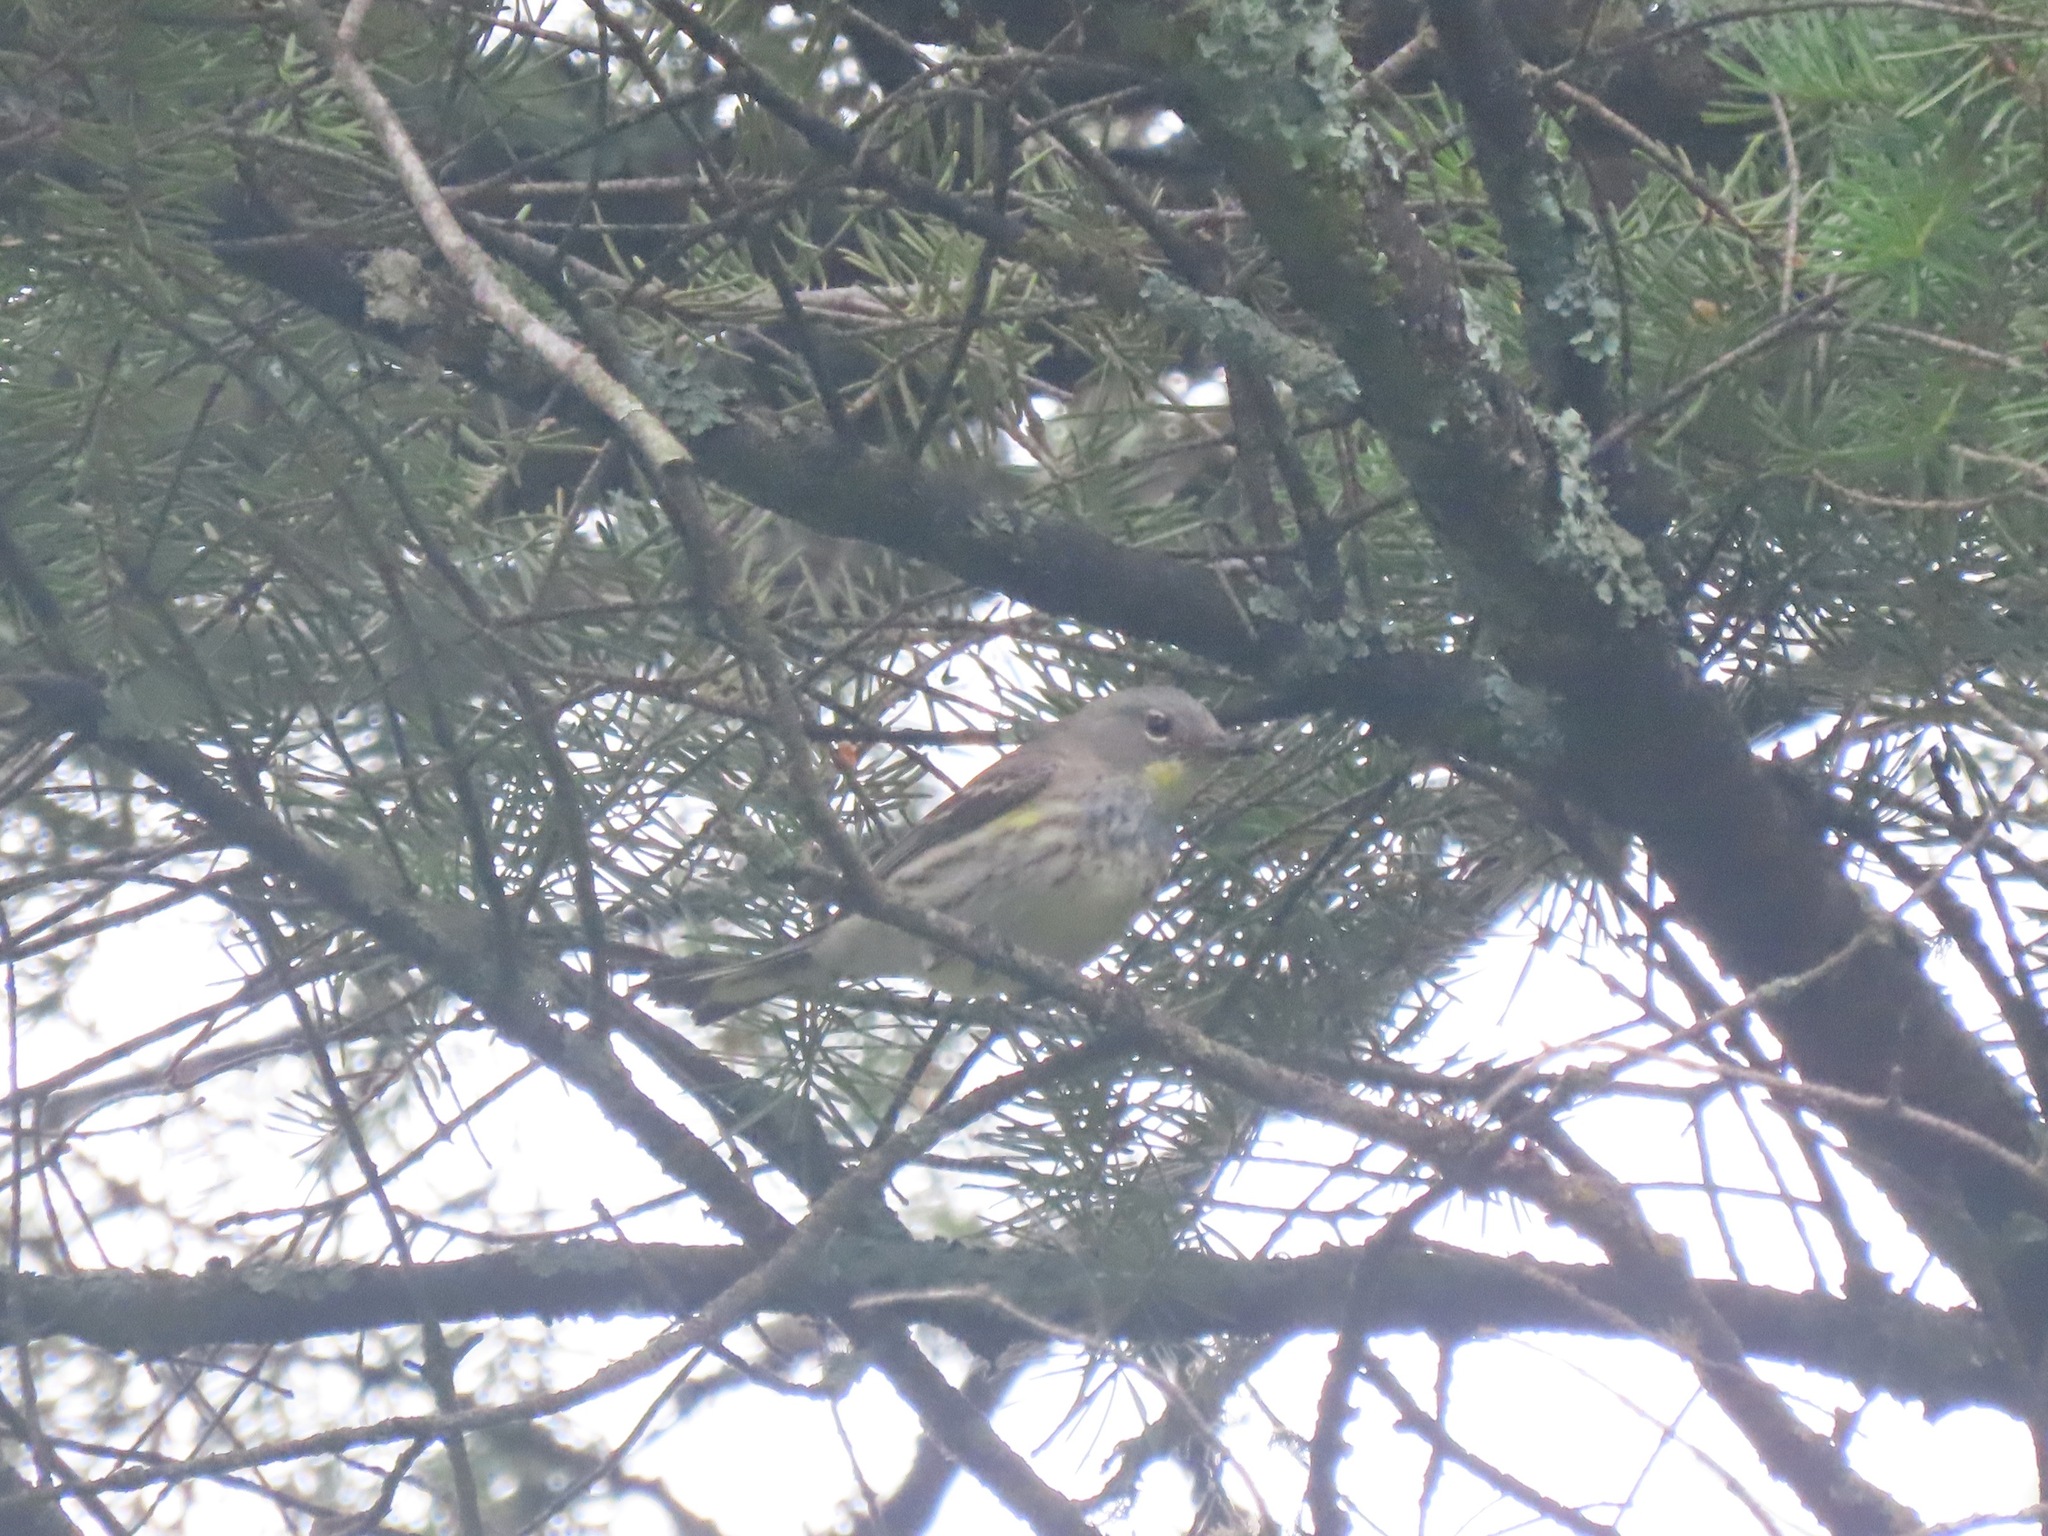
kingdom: Animalia
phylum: Chordata
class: Aves
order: Passeriformes
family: Parulidae
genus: Setophaga
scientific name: Setophaga coronata
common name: Myrtle warbler
